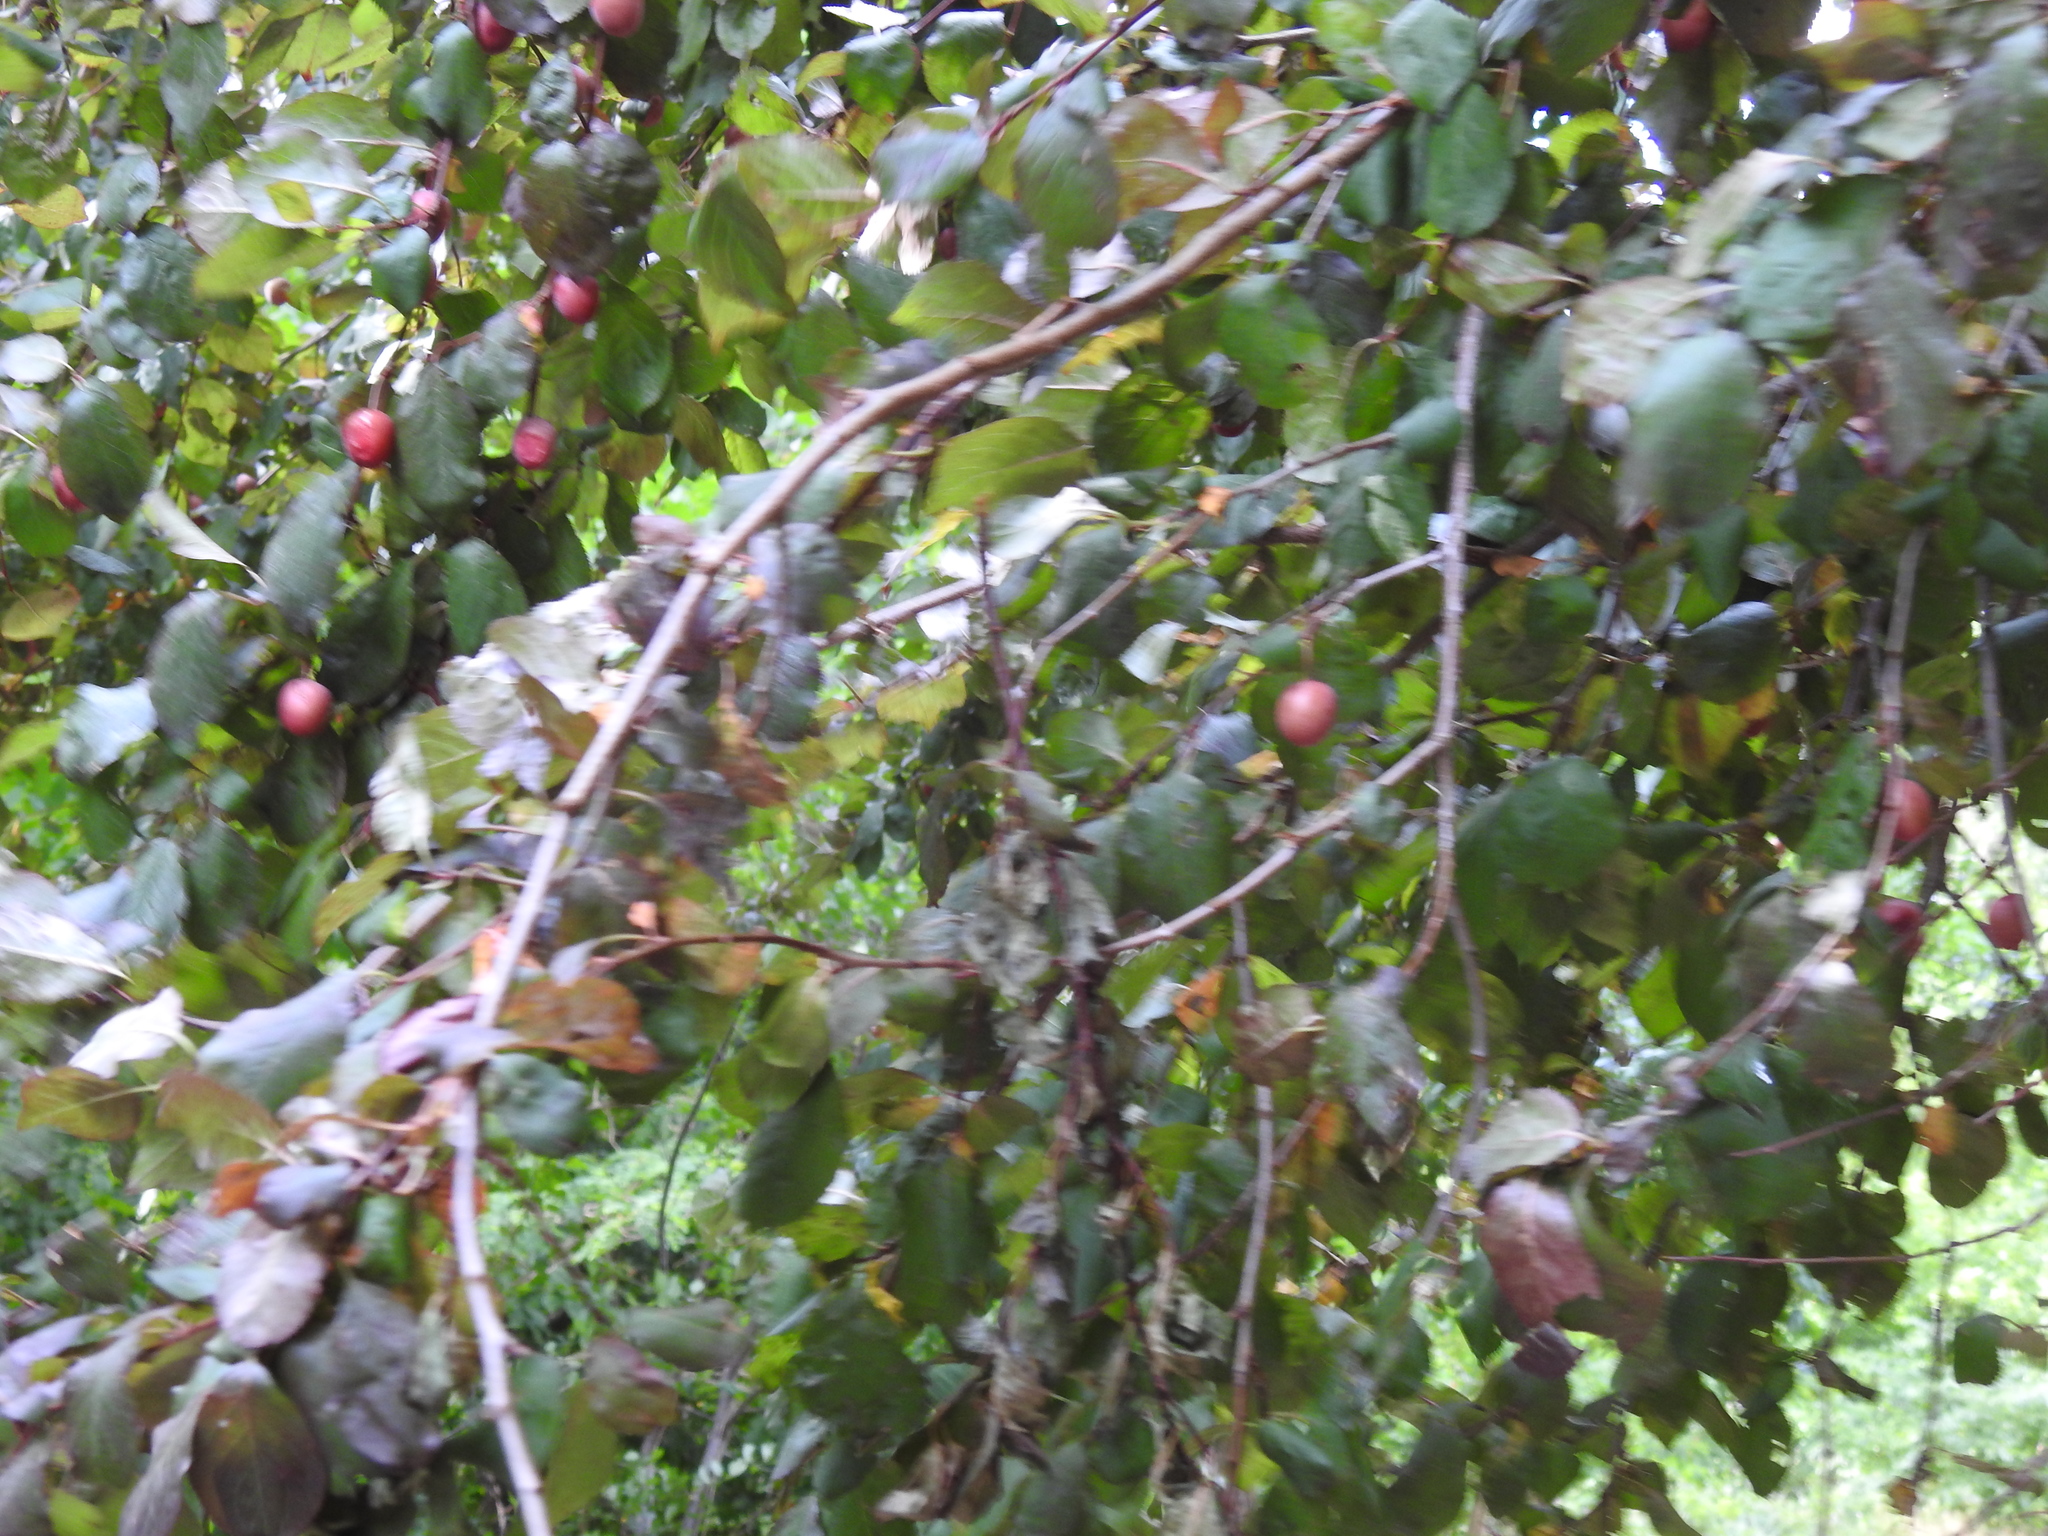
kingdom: Plantae
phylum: Tracheophyta
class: Magnoliopsida
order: Rosales
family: Rosaceae
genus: Prunus
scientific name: Prunus cerasifera
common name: Cherry plum
